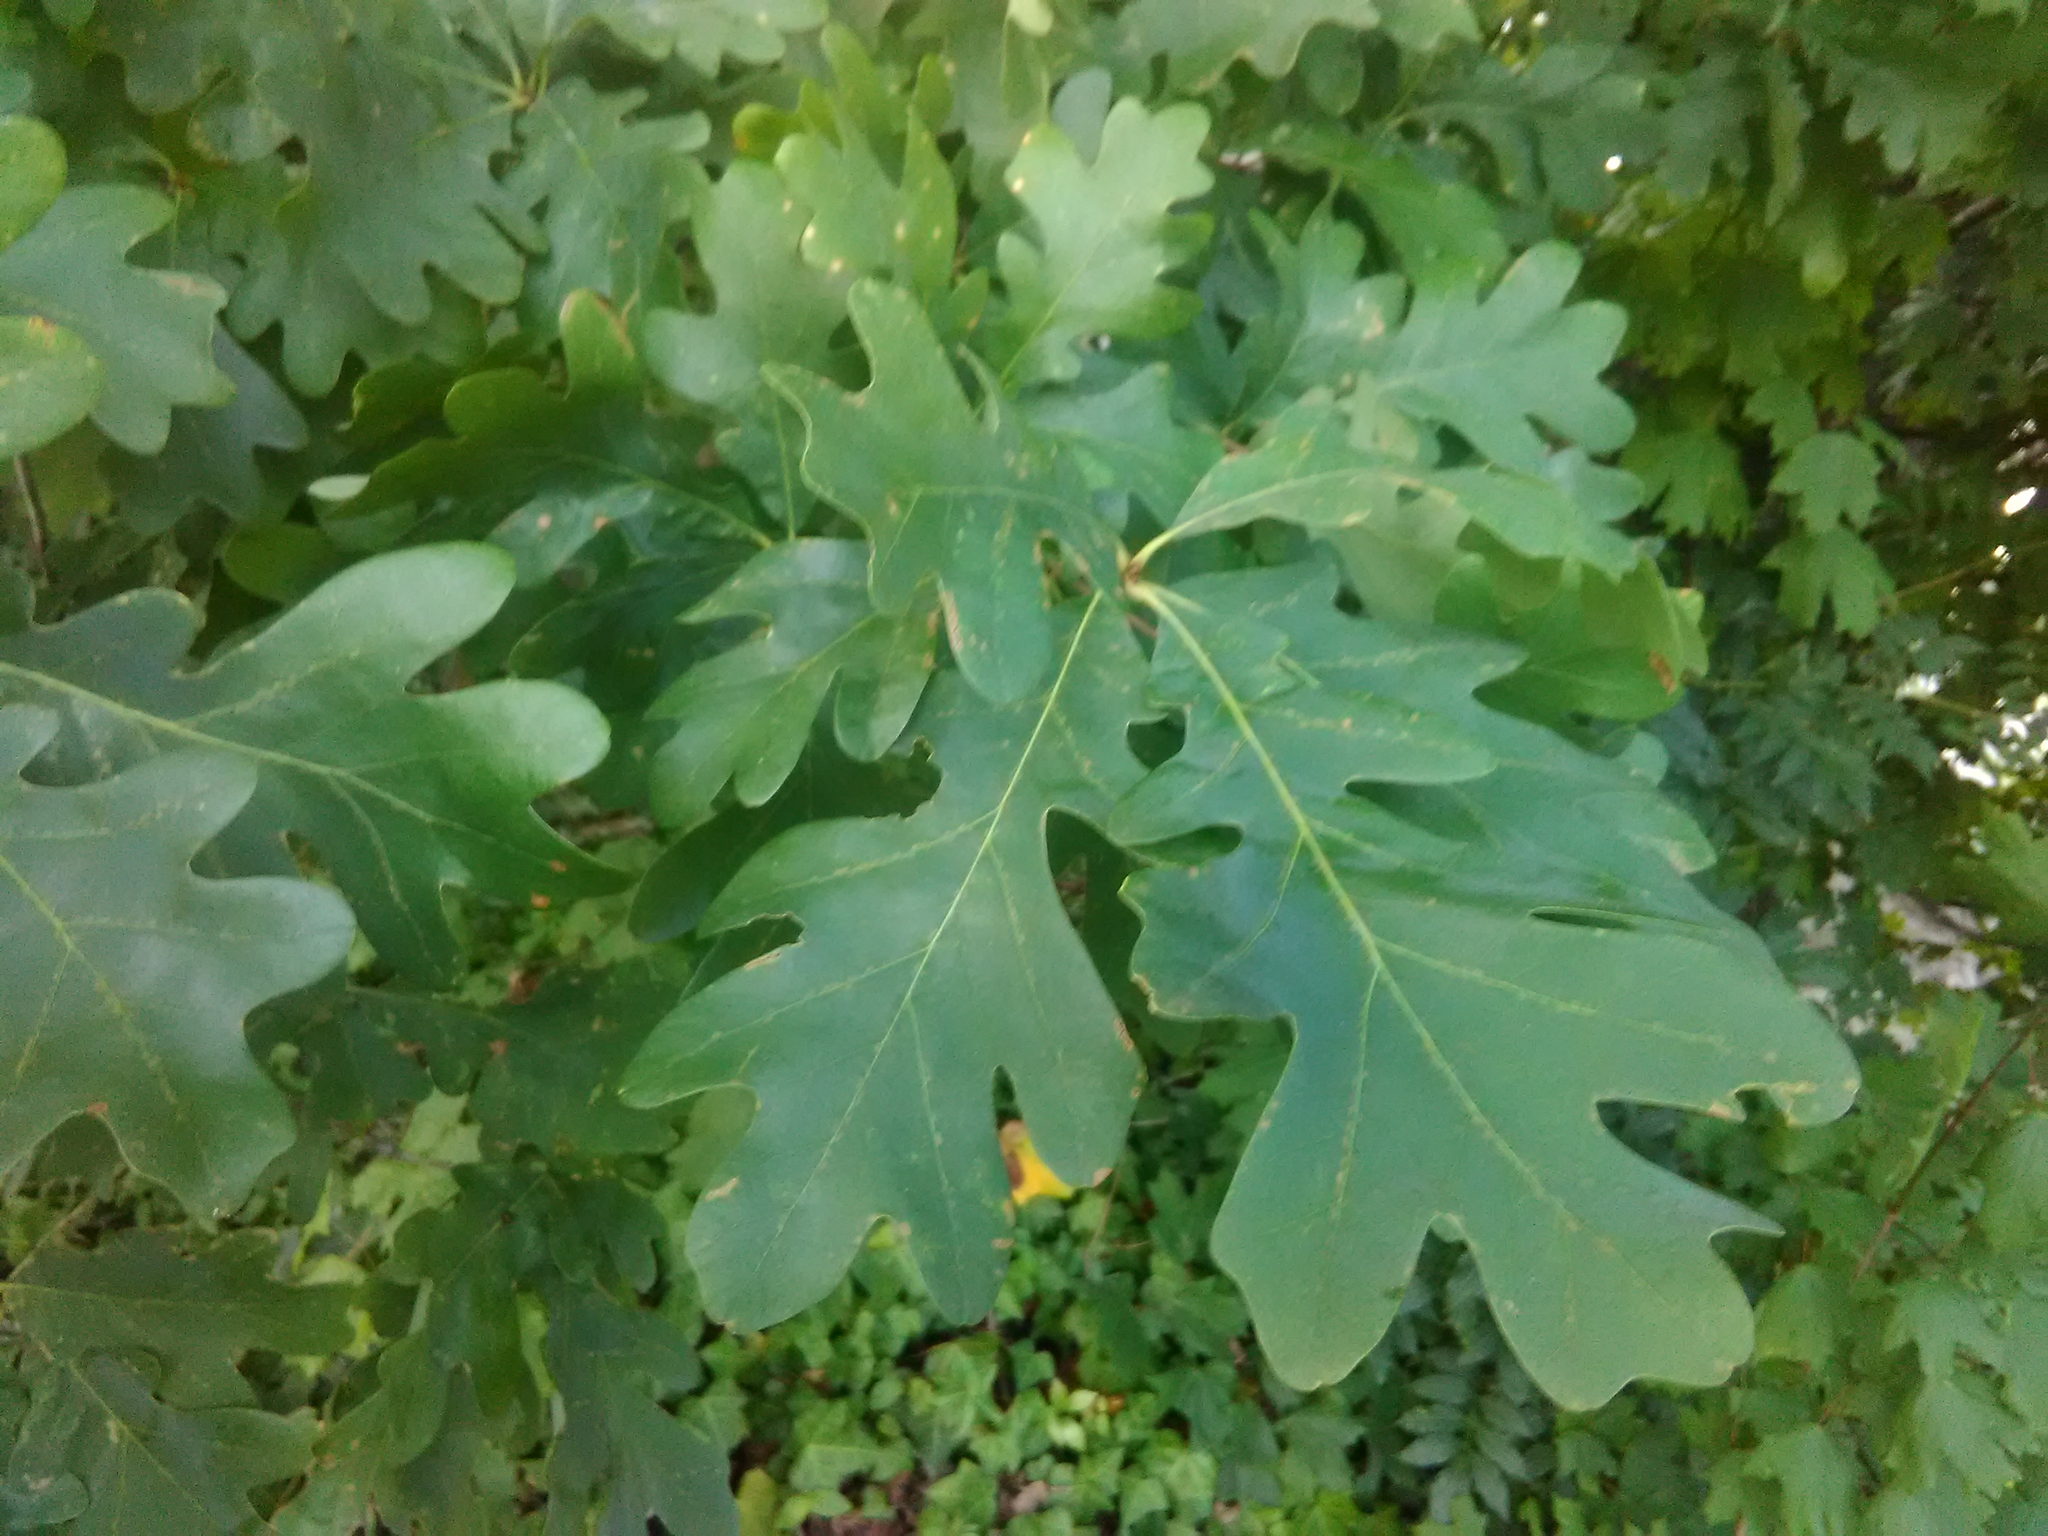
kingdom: Plantae
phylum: Tracheophyta
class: Magnoliopsida
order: Fagales
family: Fagaceae
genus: Quercus
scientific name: Quercus alba
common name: White oak
